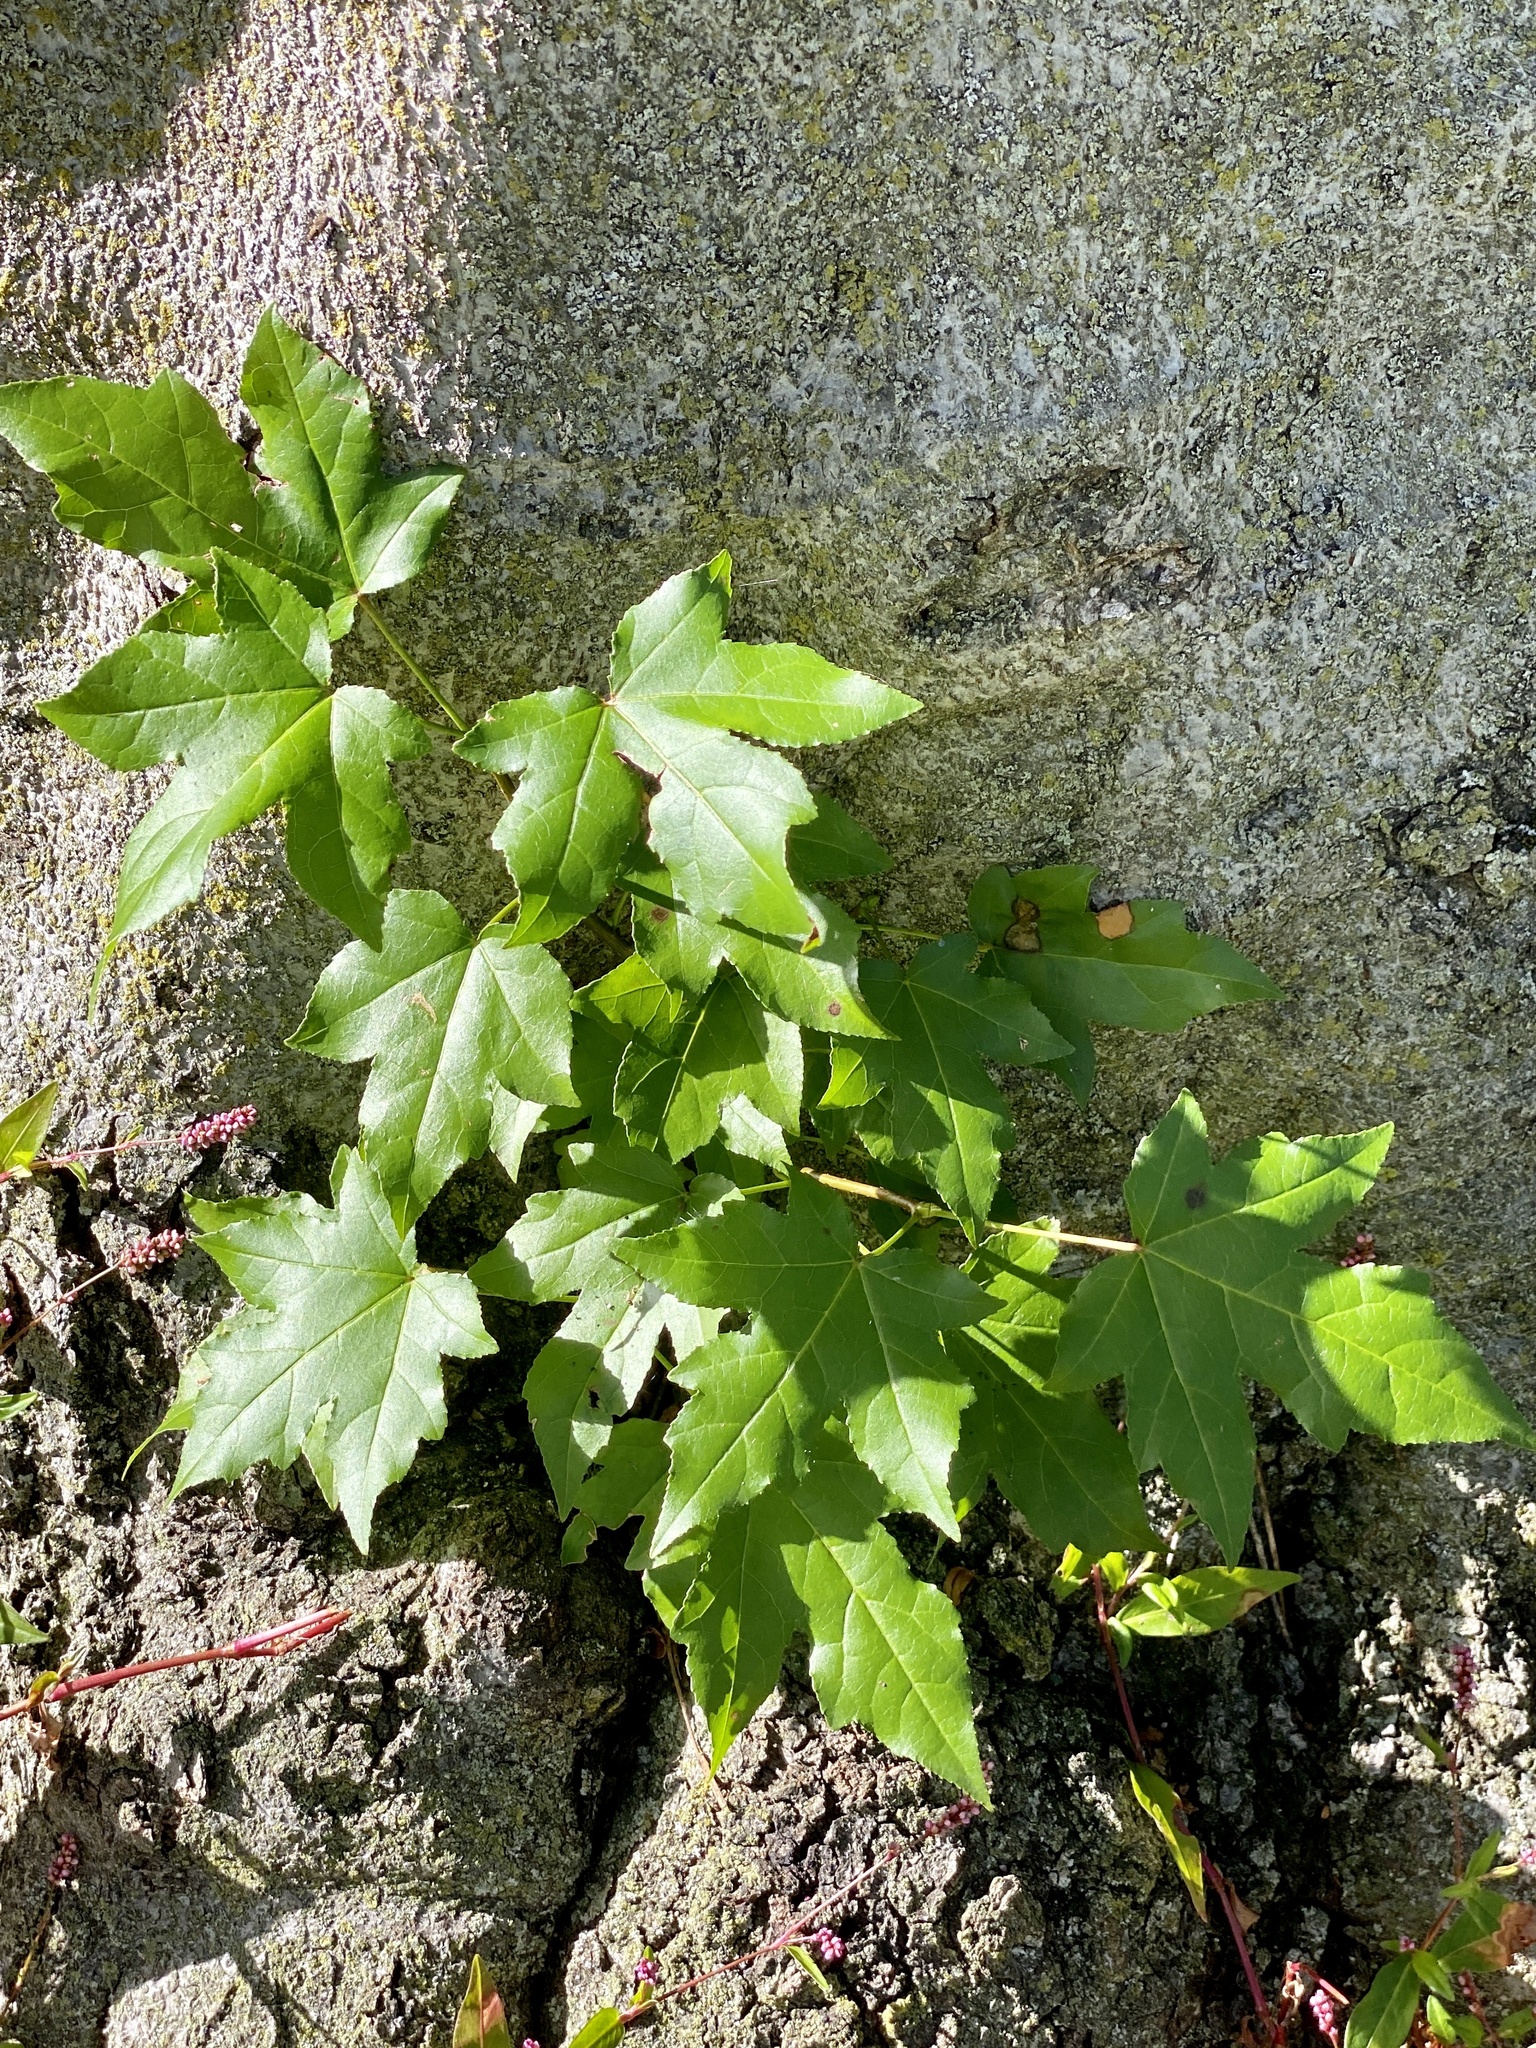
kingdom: Plantae
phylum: Tracheophyta
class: Magnoliopsida
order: Saxifragales
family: Altingiaceae
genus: Liquidambar
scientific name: Liquidambar styraciflua
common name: Sweet gum
